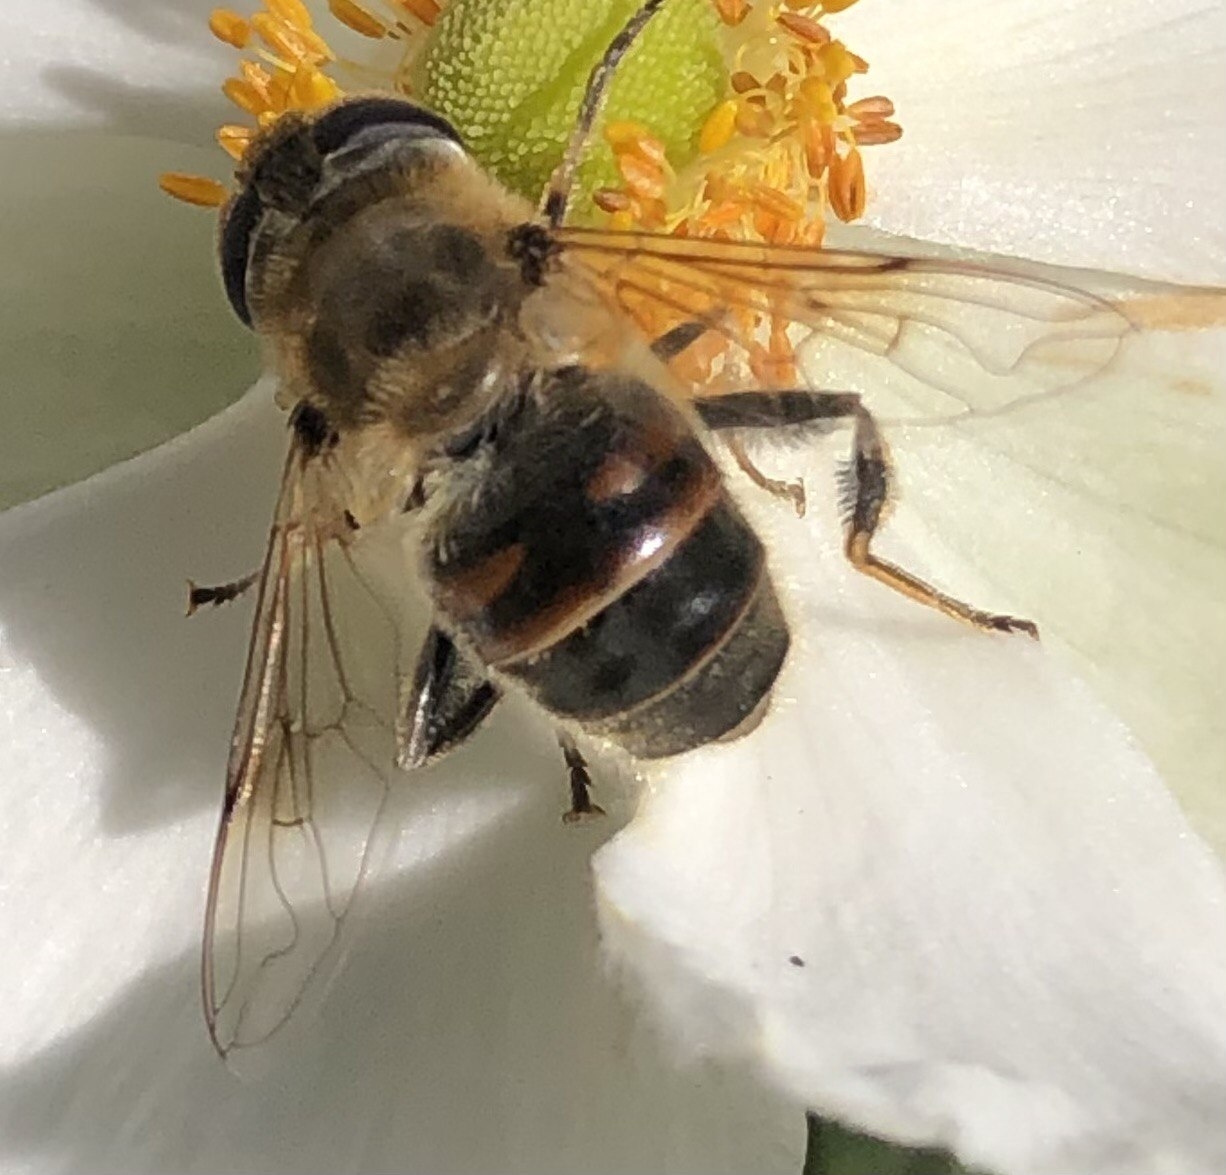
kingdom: Animalia
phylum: Arthropoda
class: Insecta
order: Diptera
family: Syrphidae
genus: Eristalis
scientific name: Eristalis tenax
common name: Drone fly
